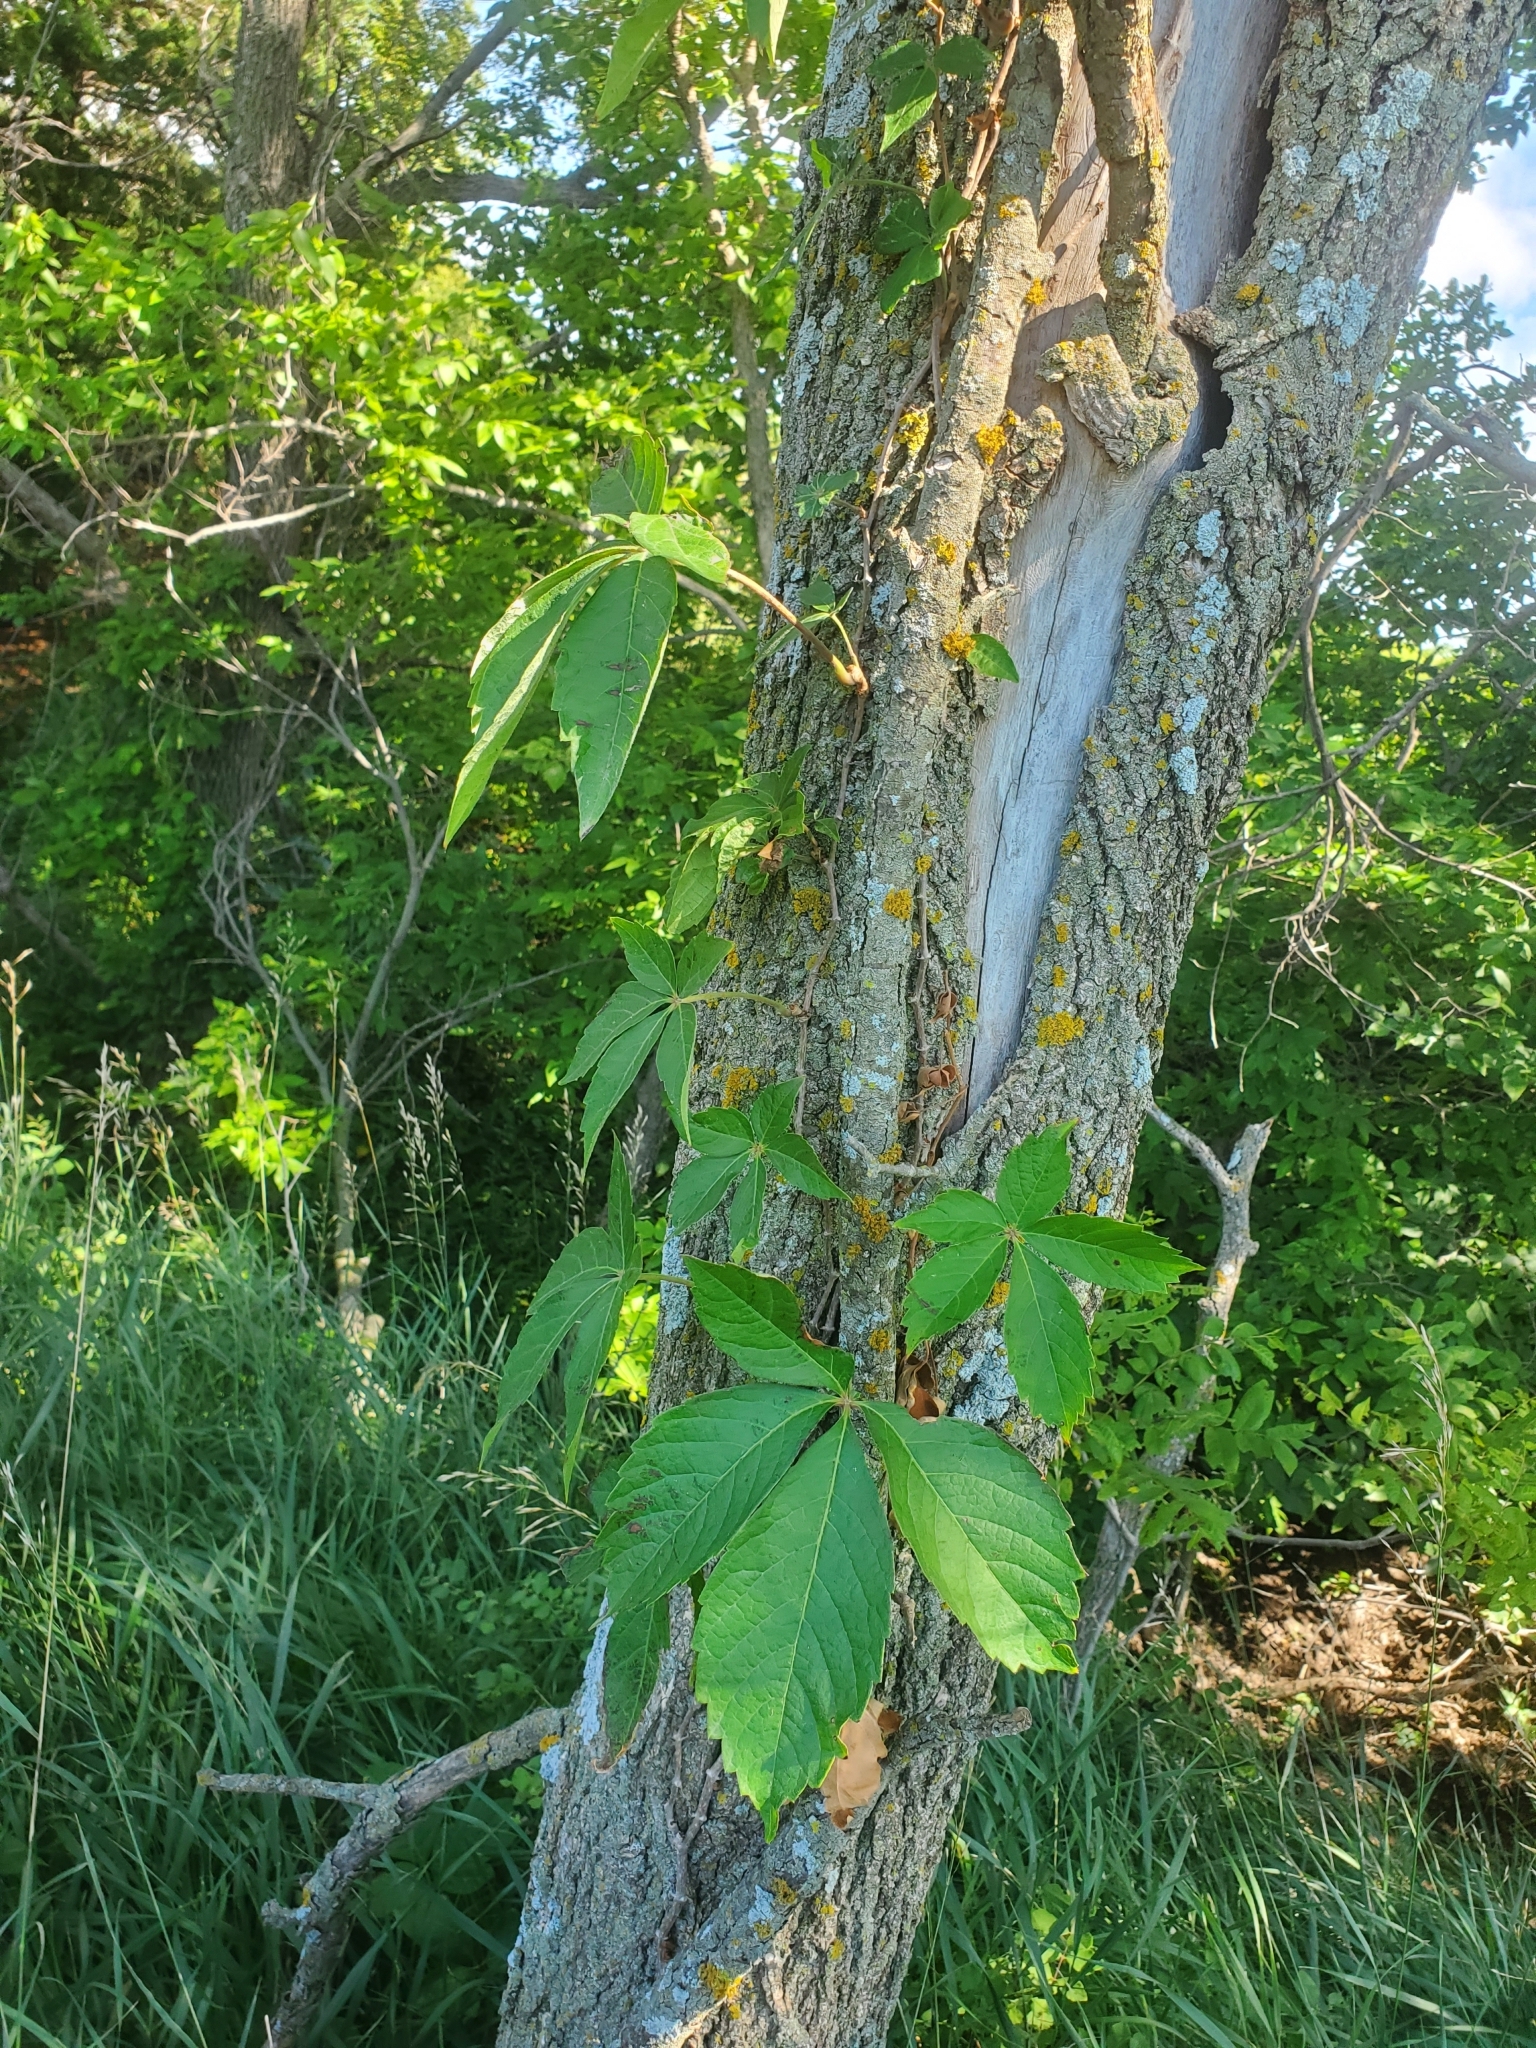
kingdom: Plantae
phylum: Tracheophyta
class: Magnoliopsida
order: Vitales
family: Vitaceae
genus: Parthenocissus
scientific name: Parthenocissus quinquefolia
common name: Virginia-creeper
